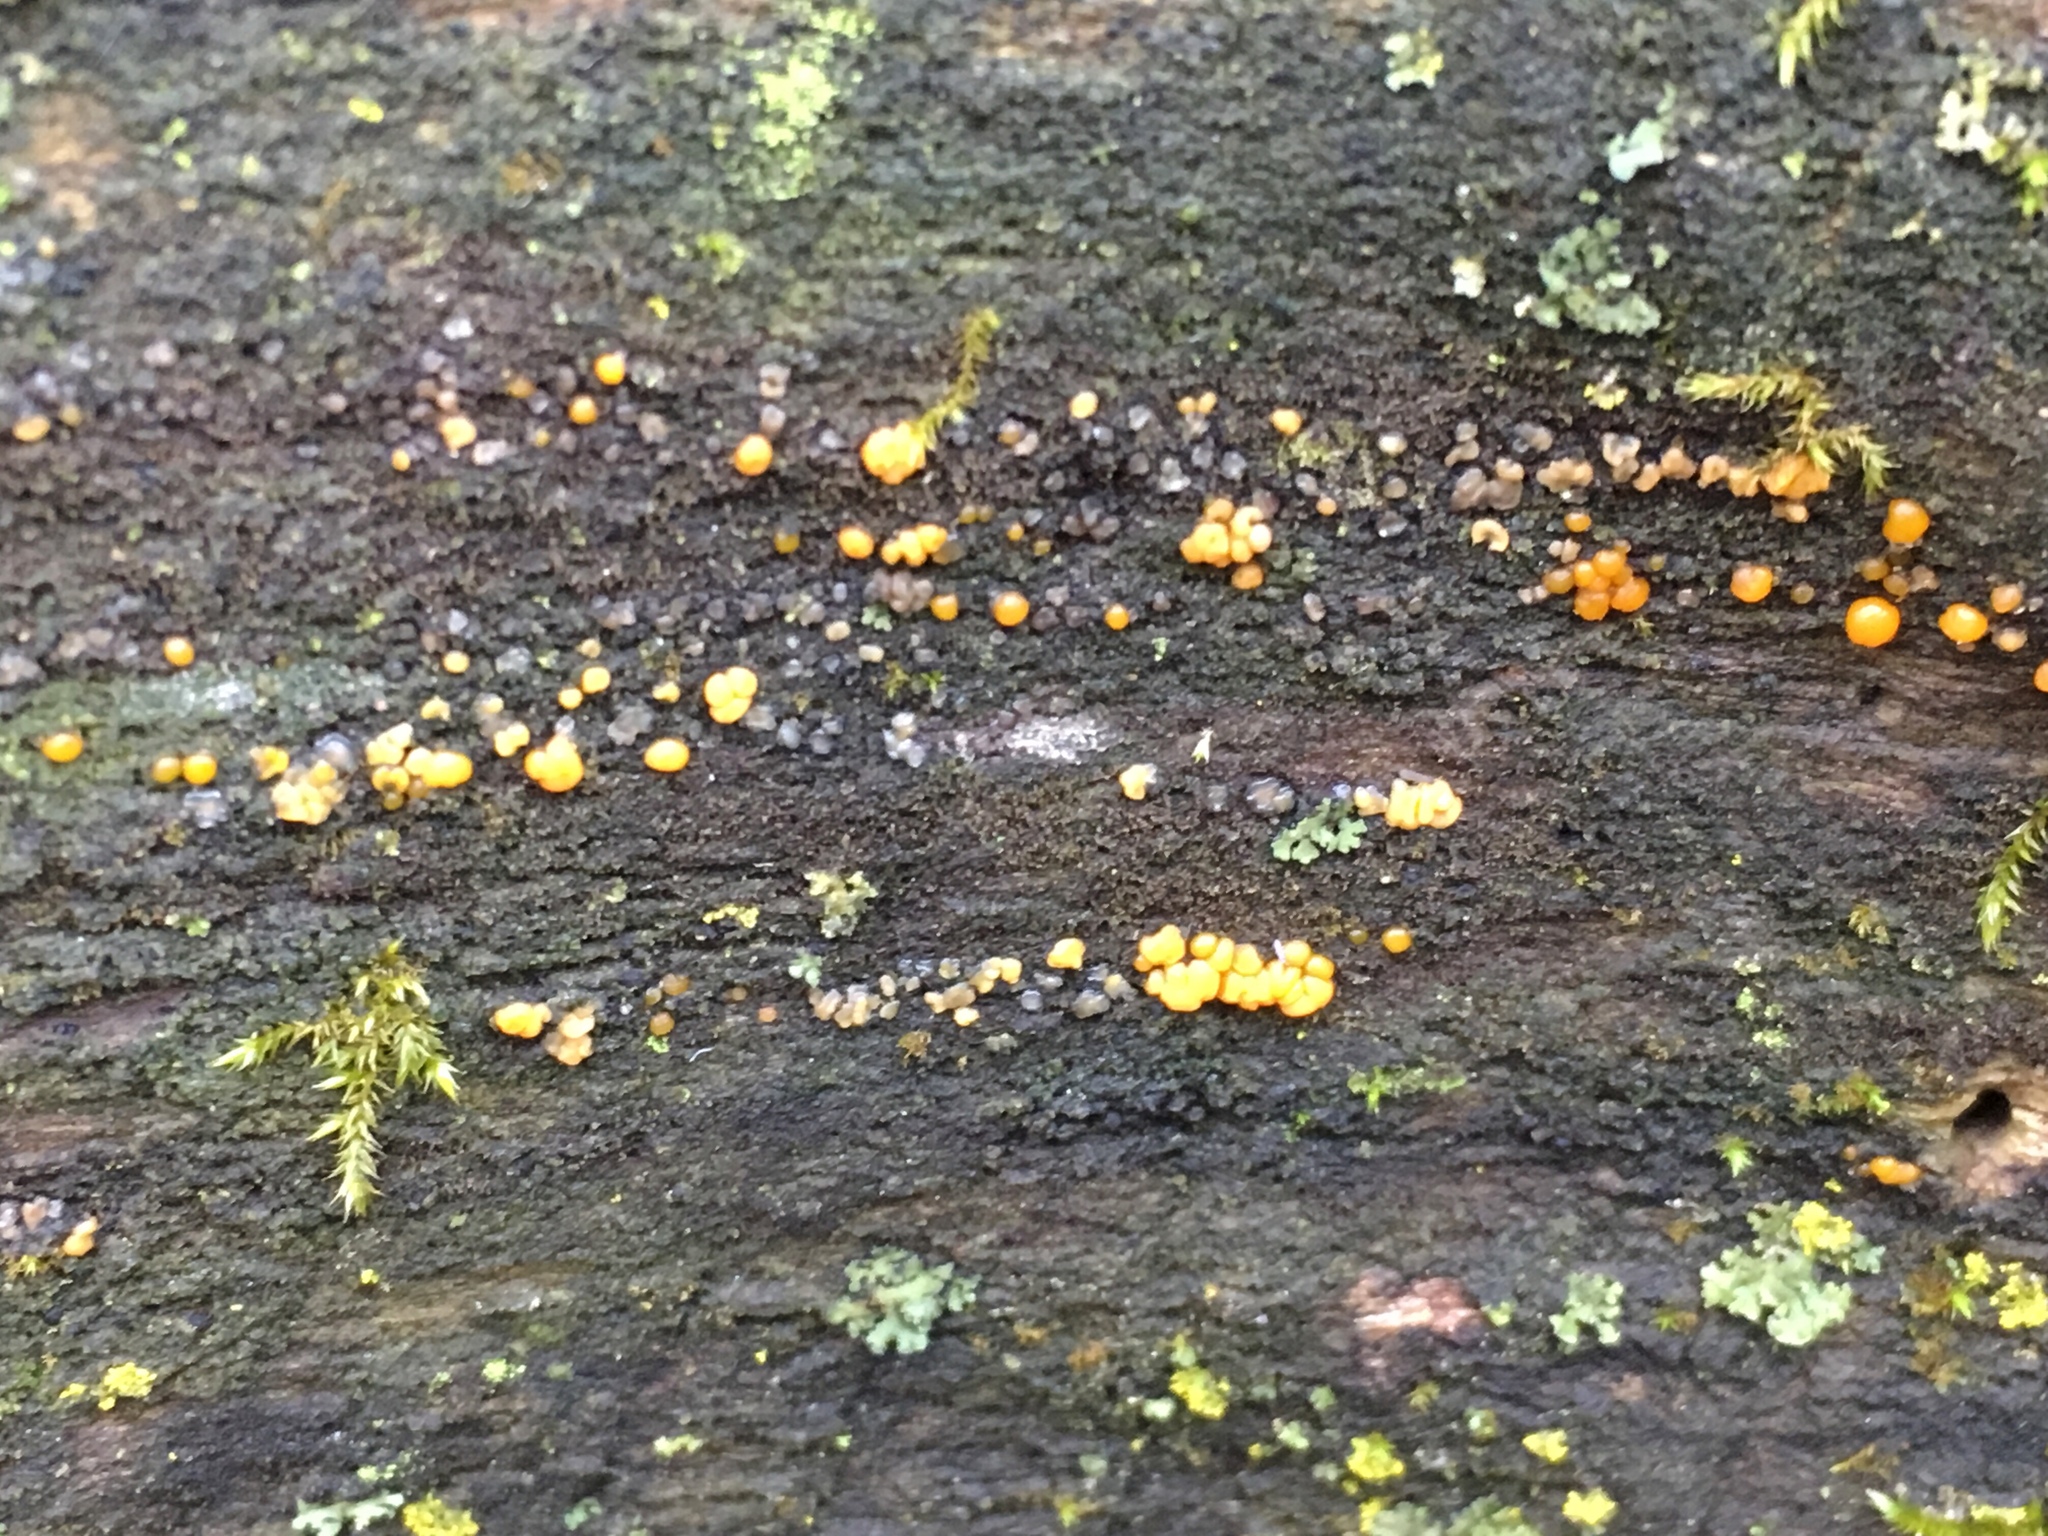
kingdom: Fungi
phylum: Basidiomycota
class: Dacrymycetes
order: Dacrymycetales
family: Dacrymycetaceae
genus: Dacrymyces
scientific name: Dacrymyces stillatus
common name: Common jelly spot
